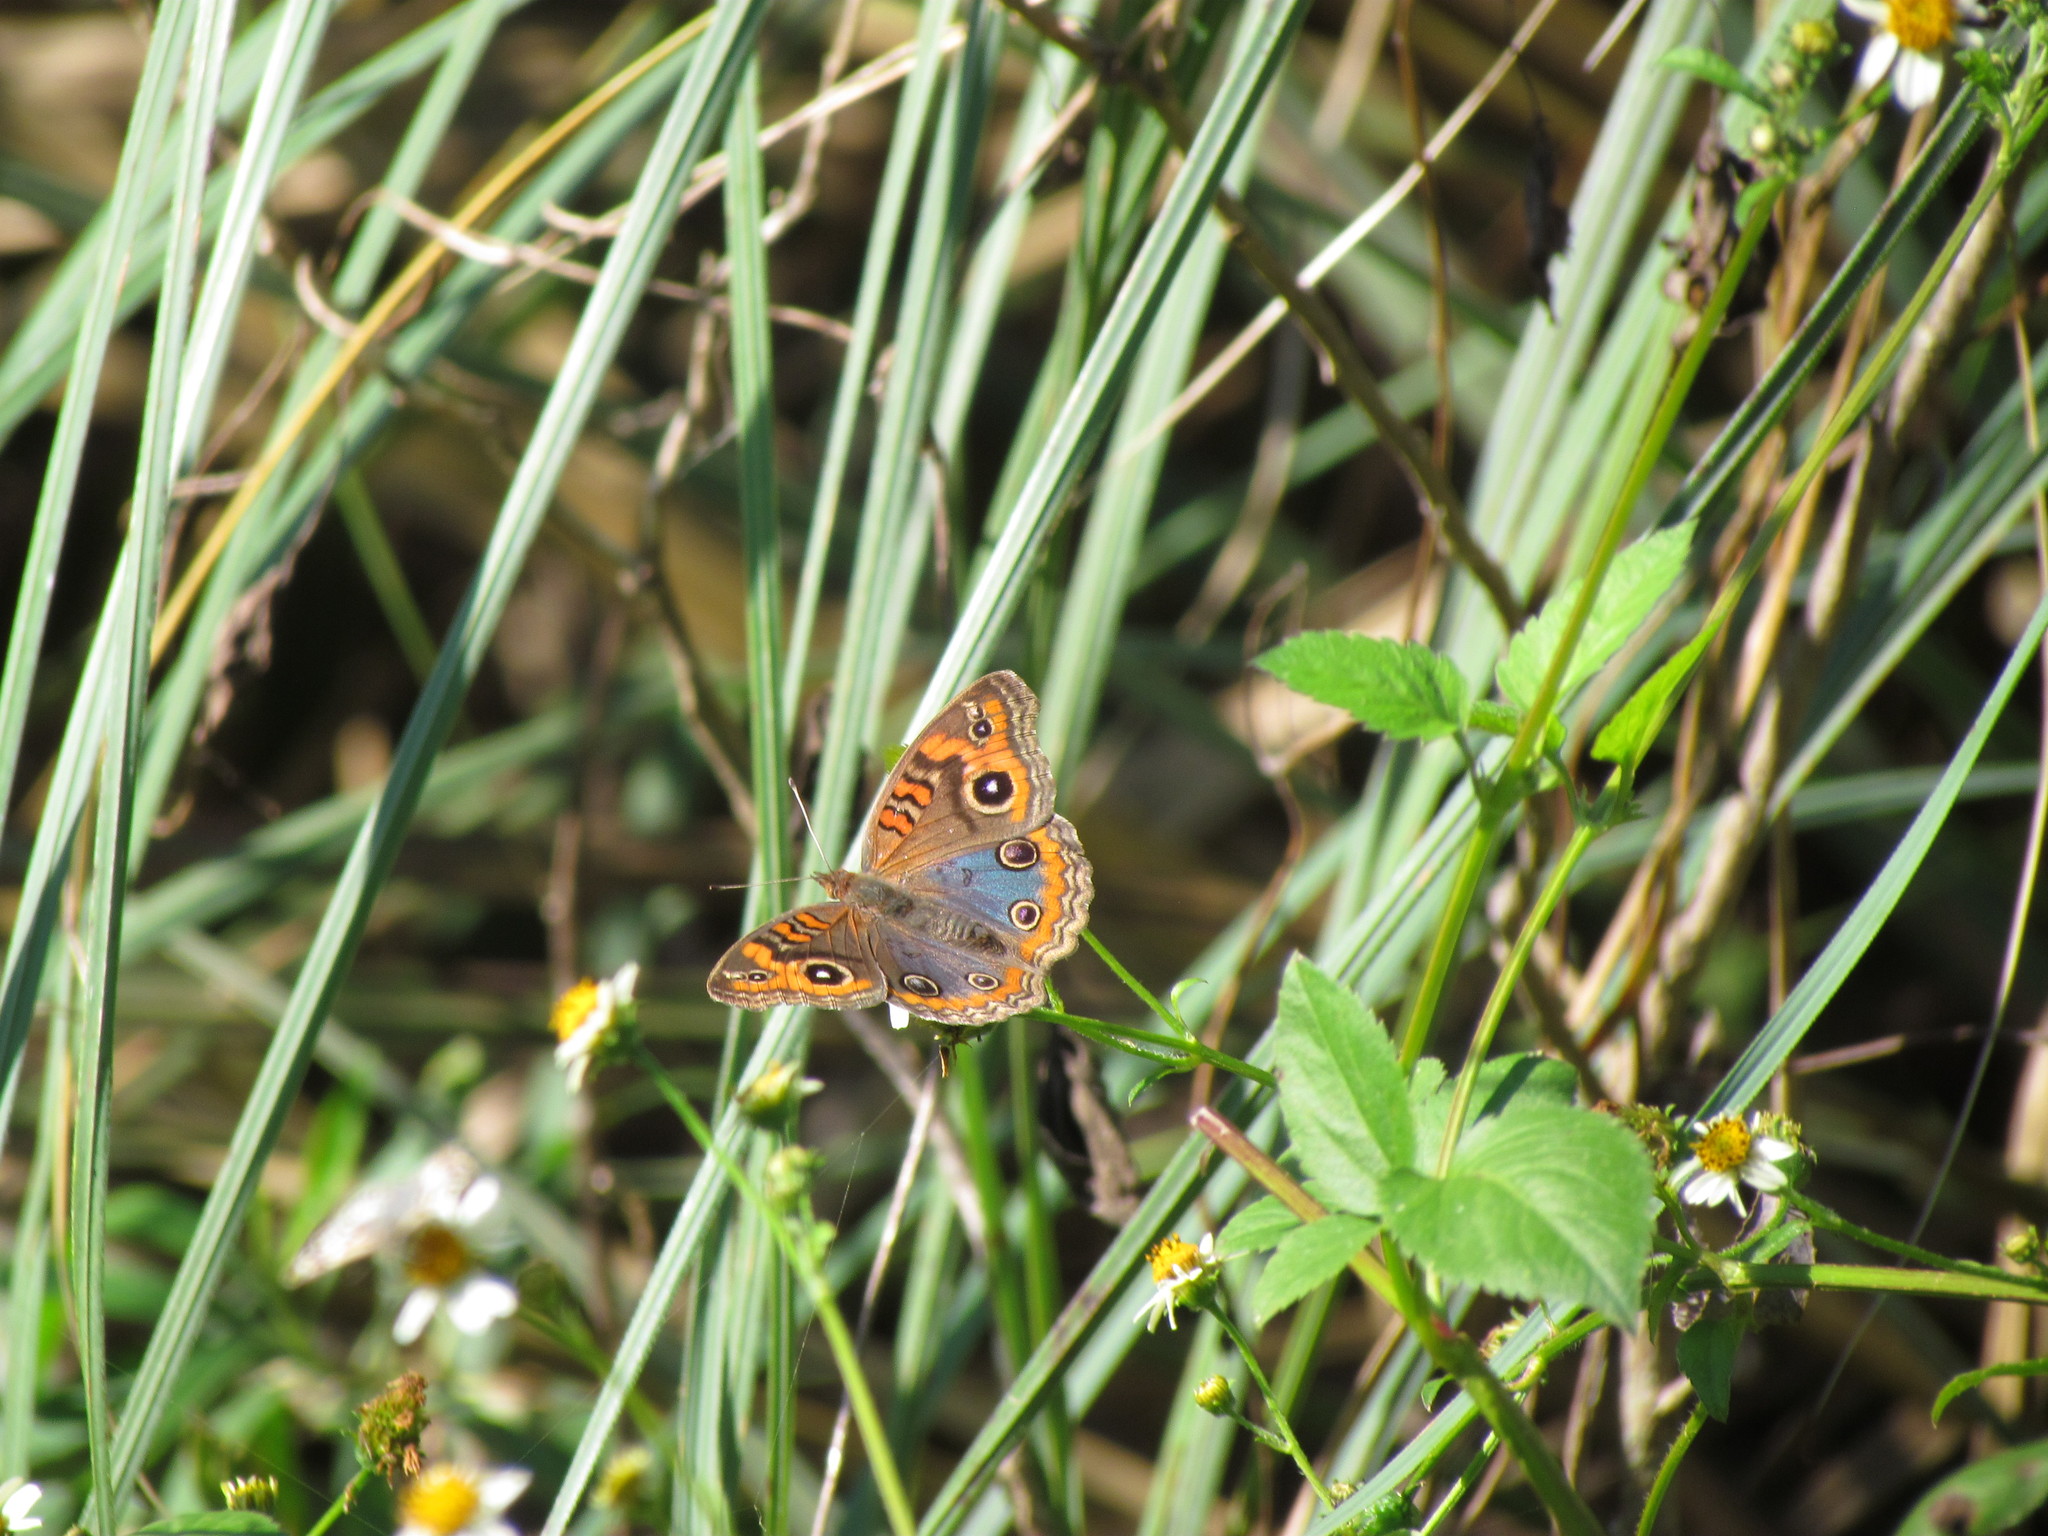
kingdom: Animalia
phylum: Arthropoda
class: Insecta
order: Lepidoptera
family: Nymphalidae
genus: Junonia
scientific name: Junonia lavinia
